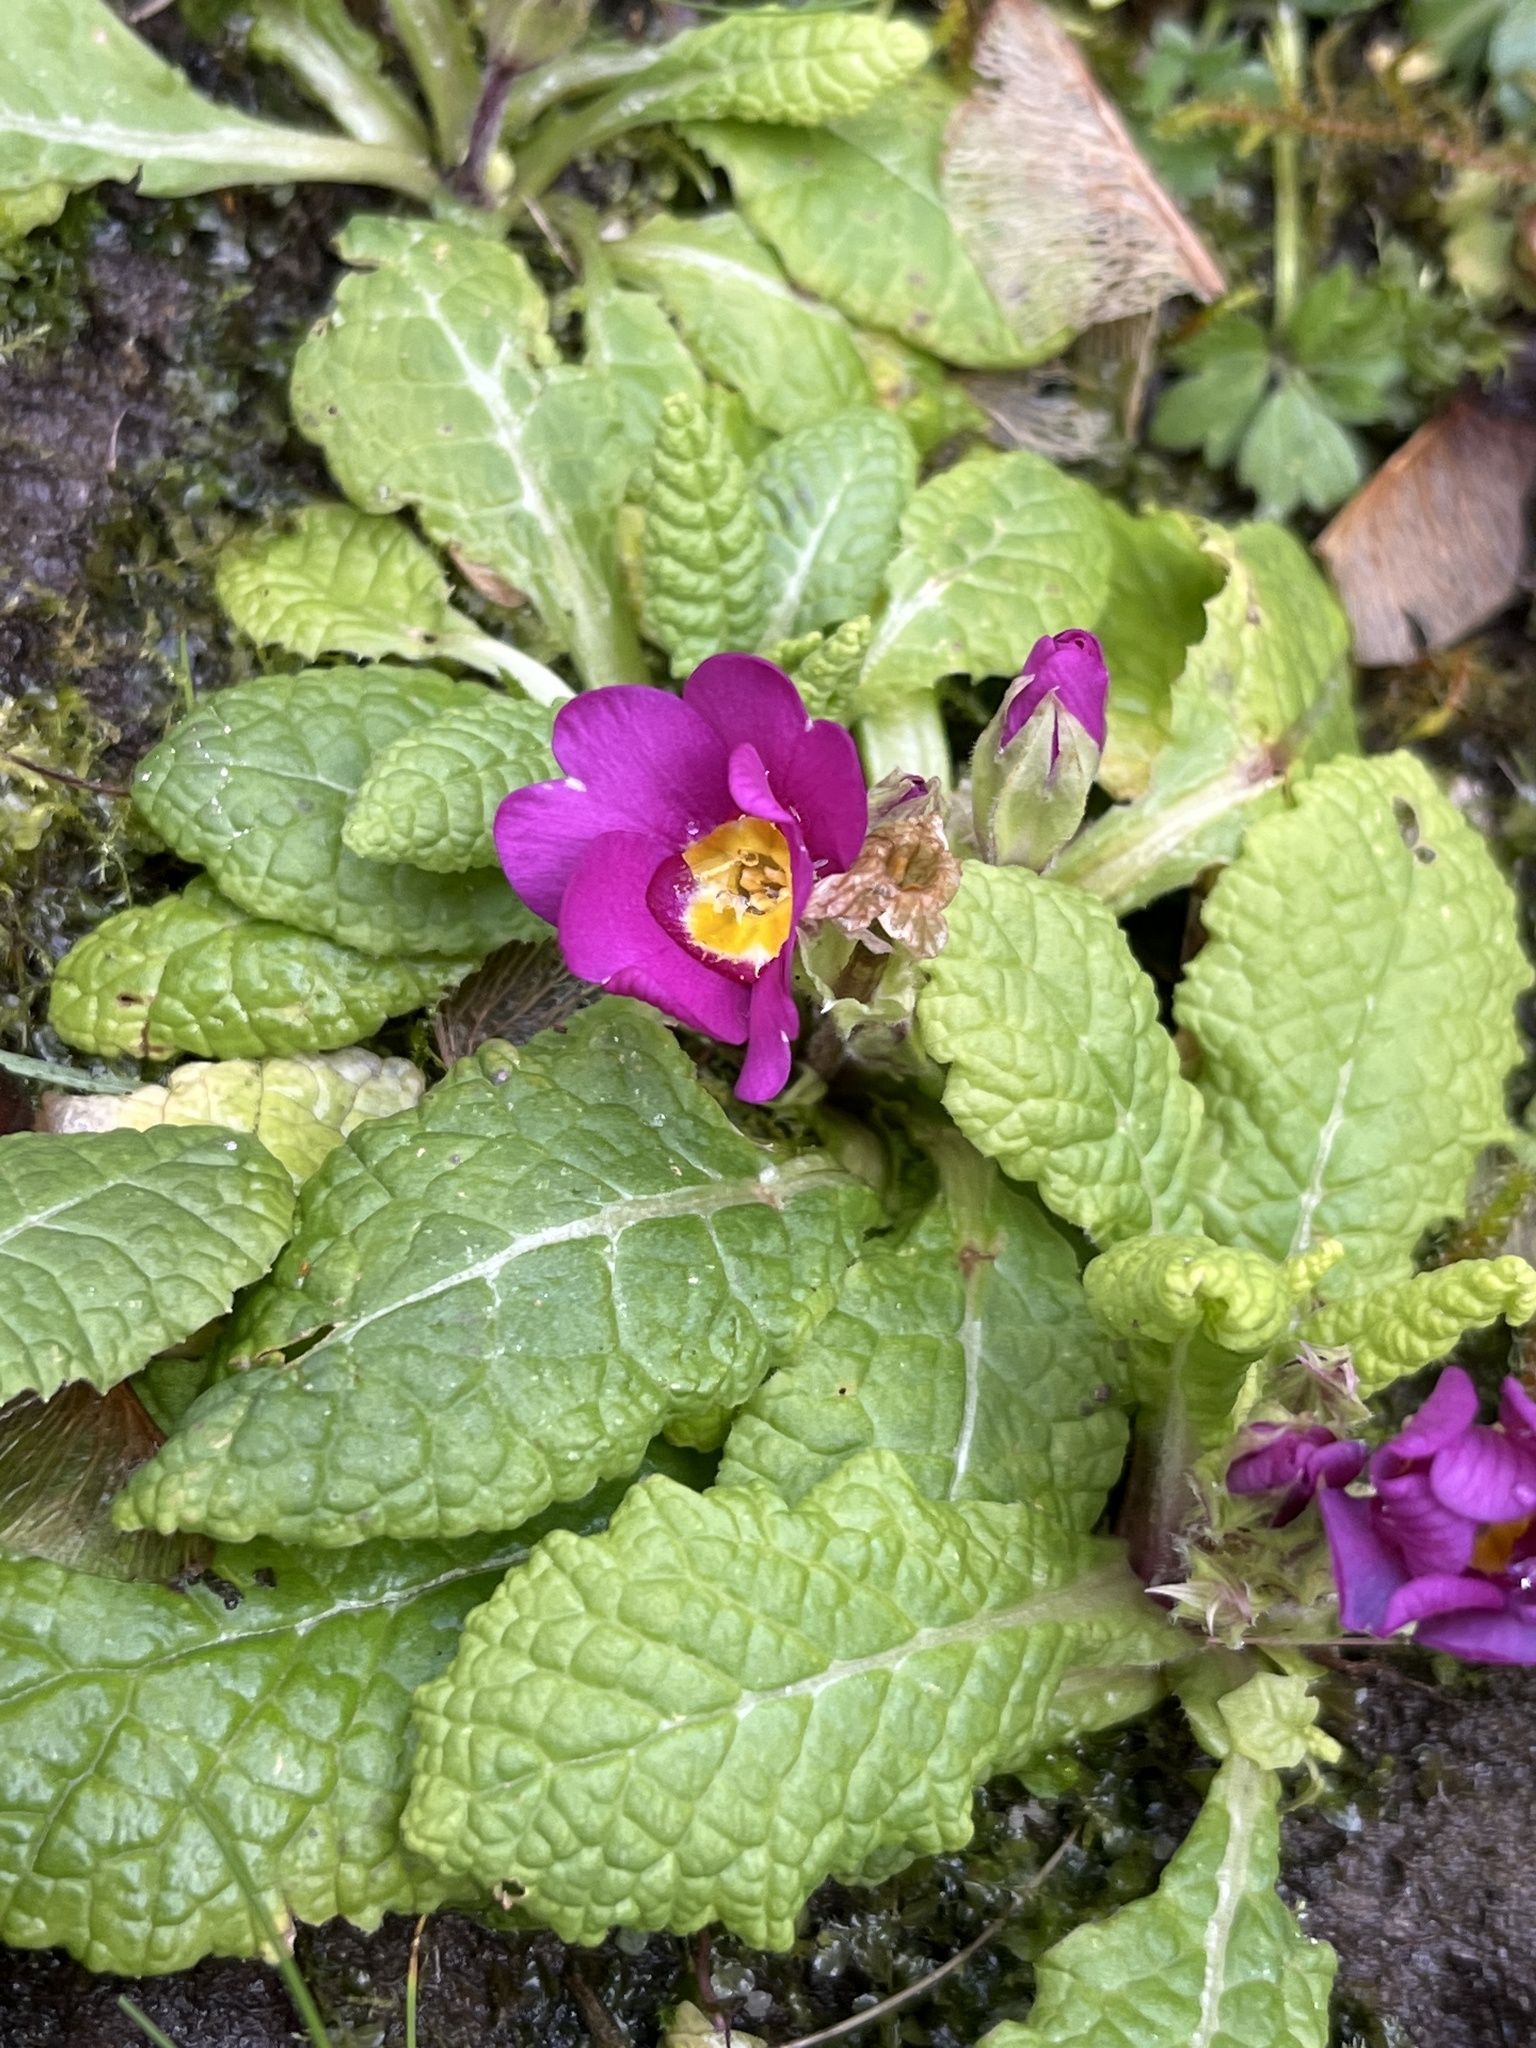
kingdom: Plantae
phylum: Tracheophyta
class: Magnoliopsida
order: Ericales
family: Primulaceae
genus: Primula
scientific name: Primula vulgaris
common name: Primrose
